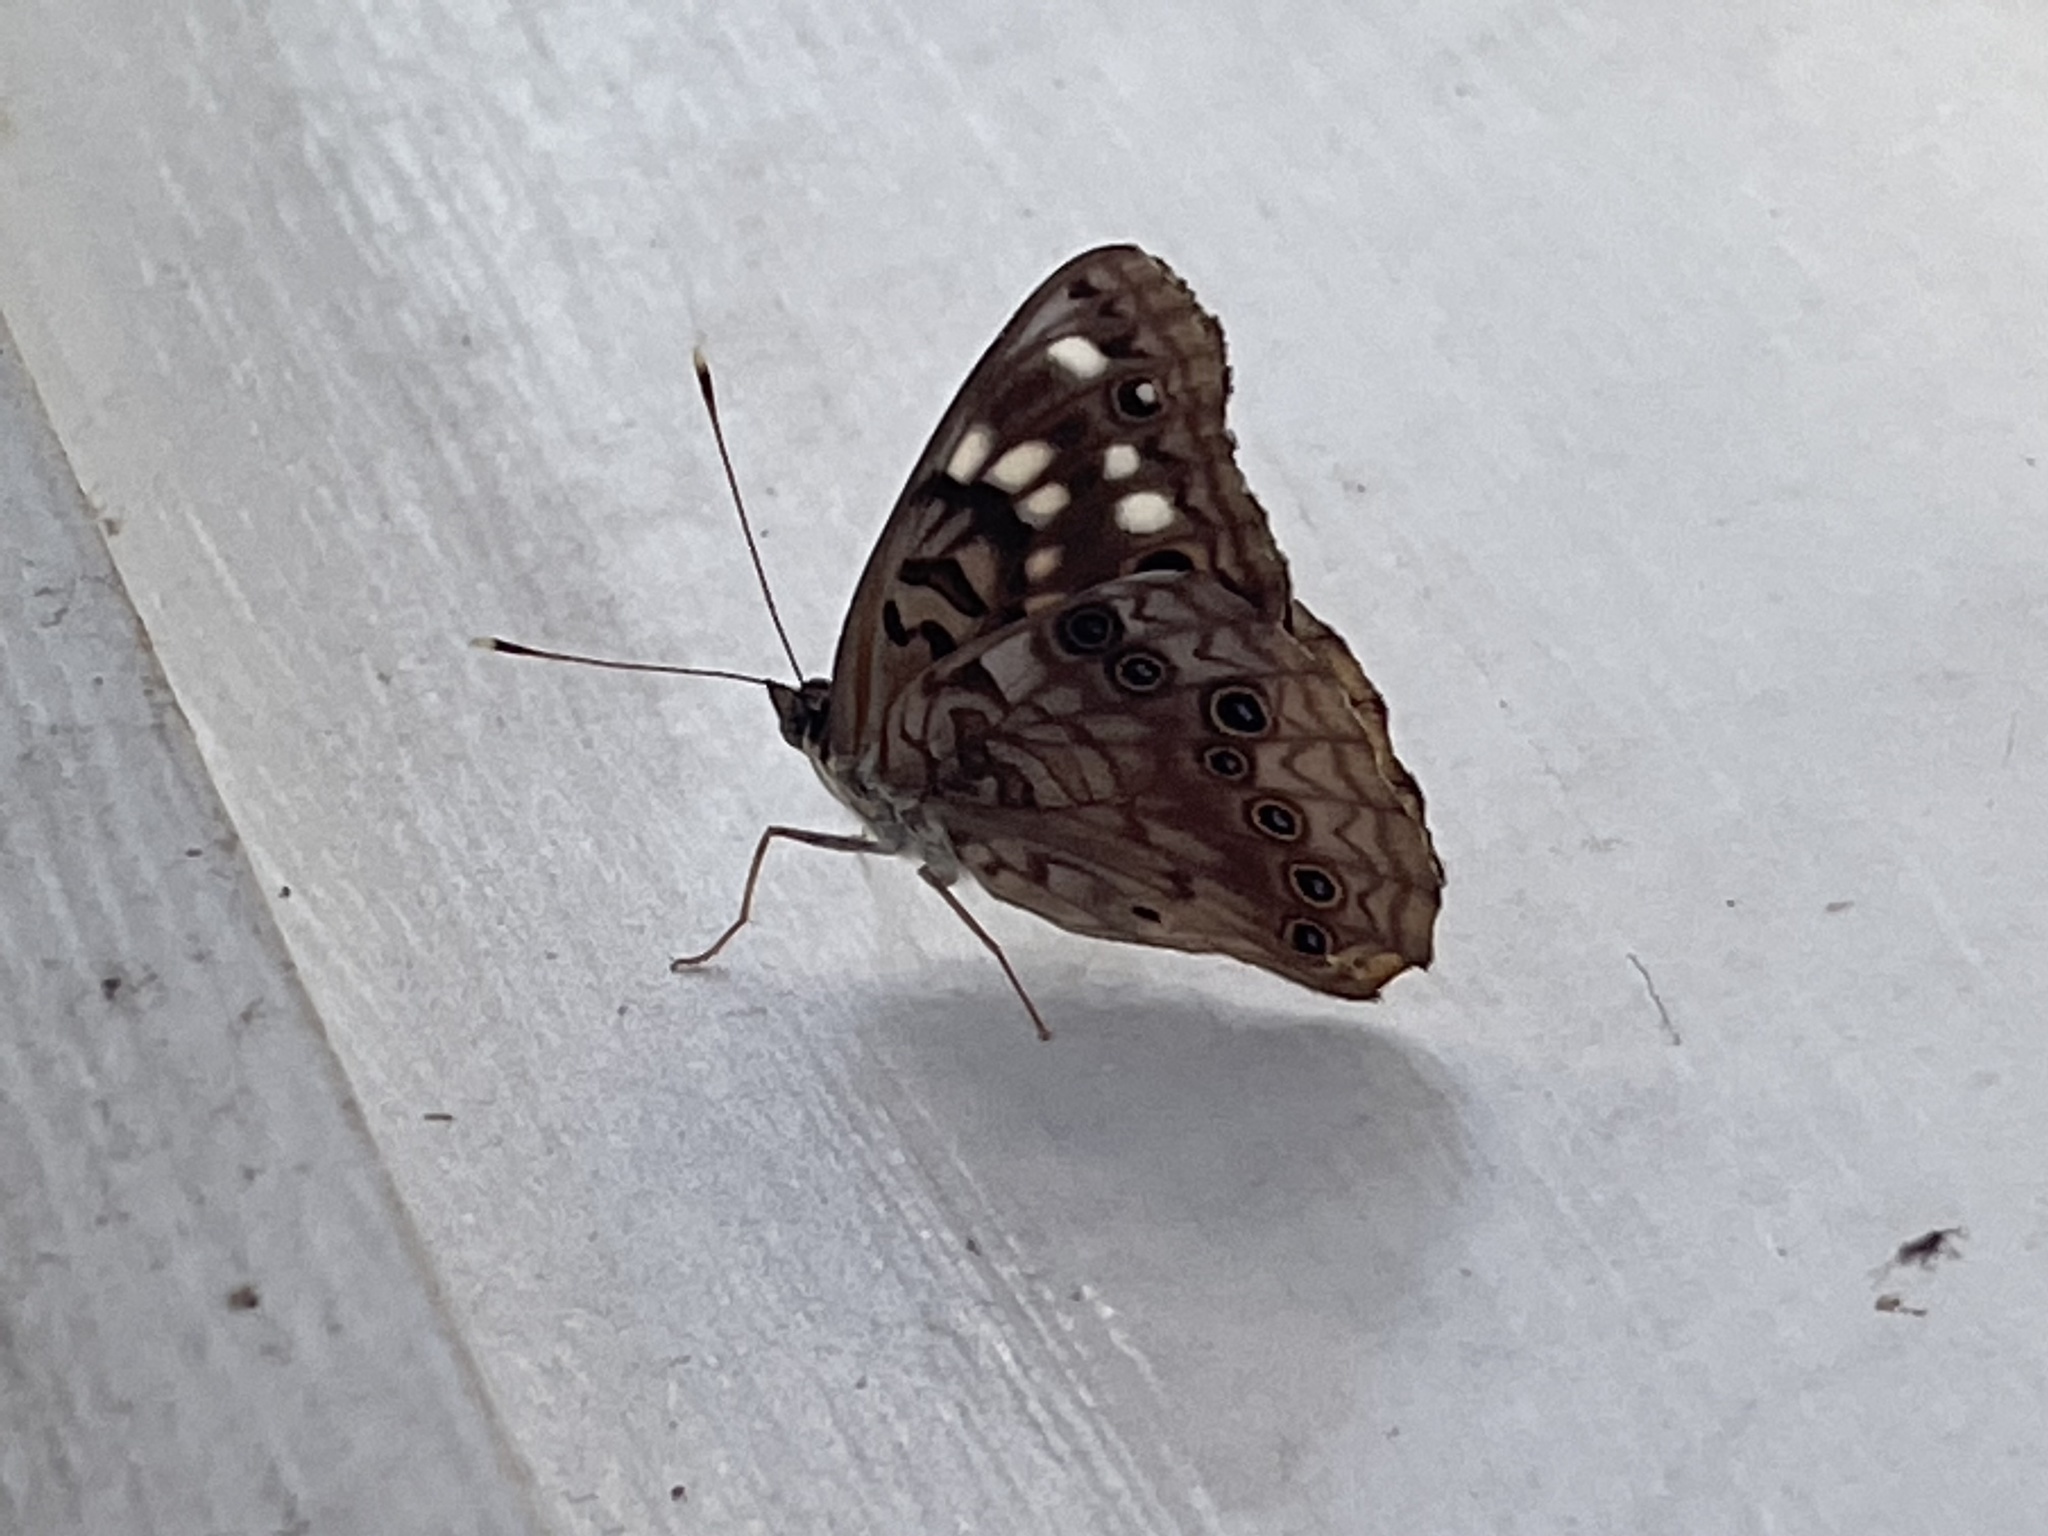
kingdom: Animalia
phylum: Arthropoda
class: Insecta
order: Lepidoptera
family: Nymphalidae
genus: Asterocampa
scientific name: Asterocampa celtis
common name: Hackberry emperor
